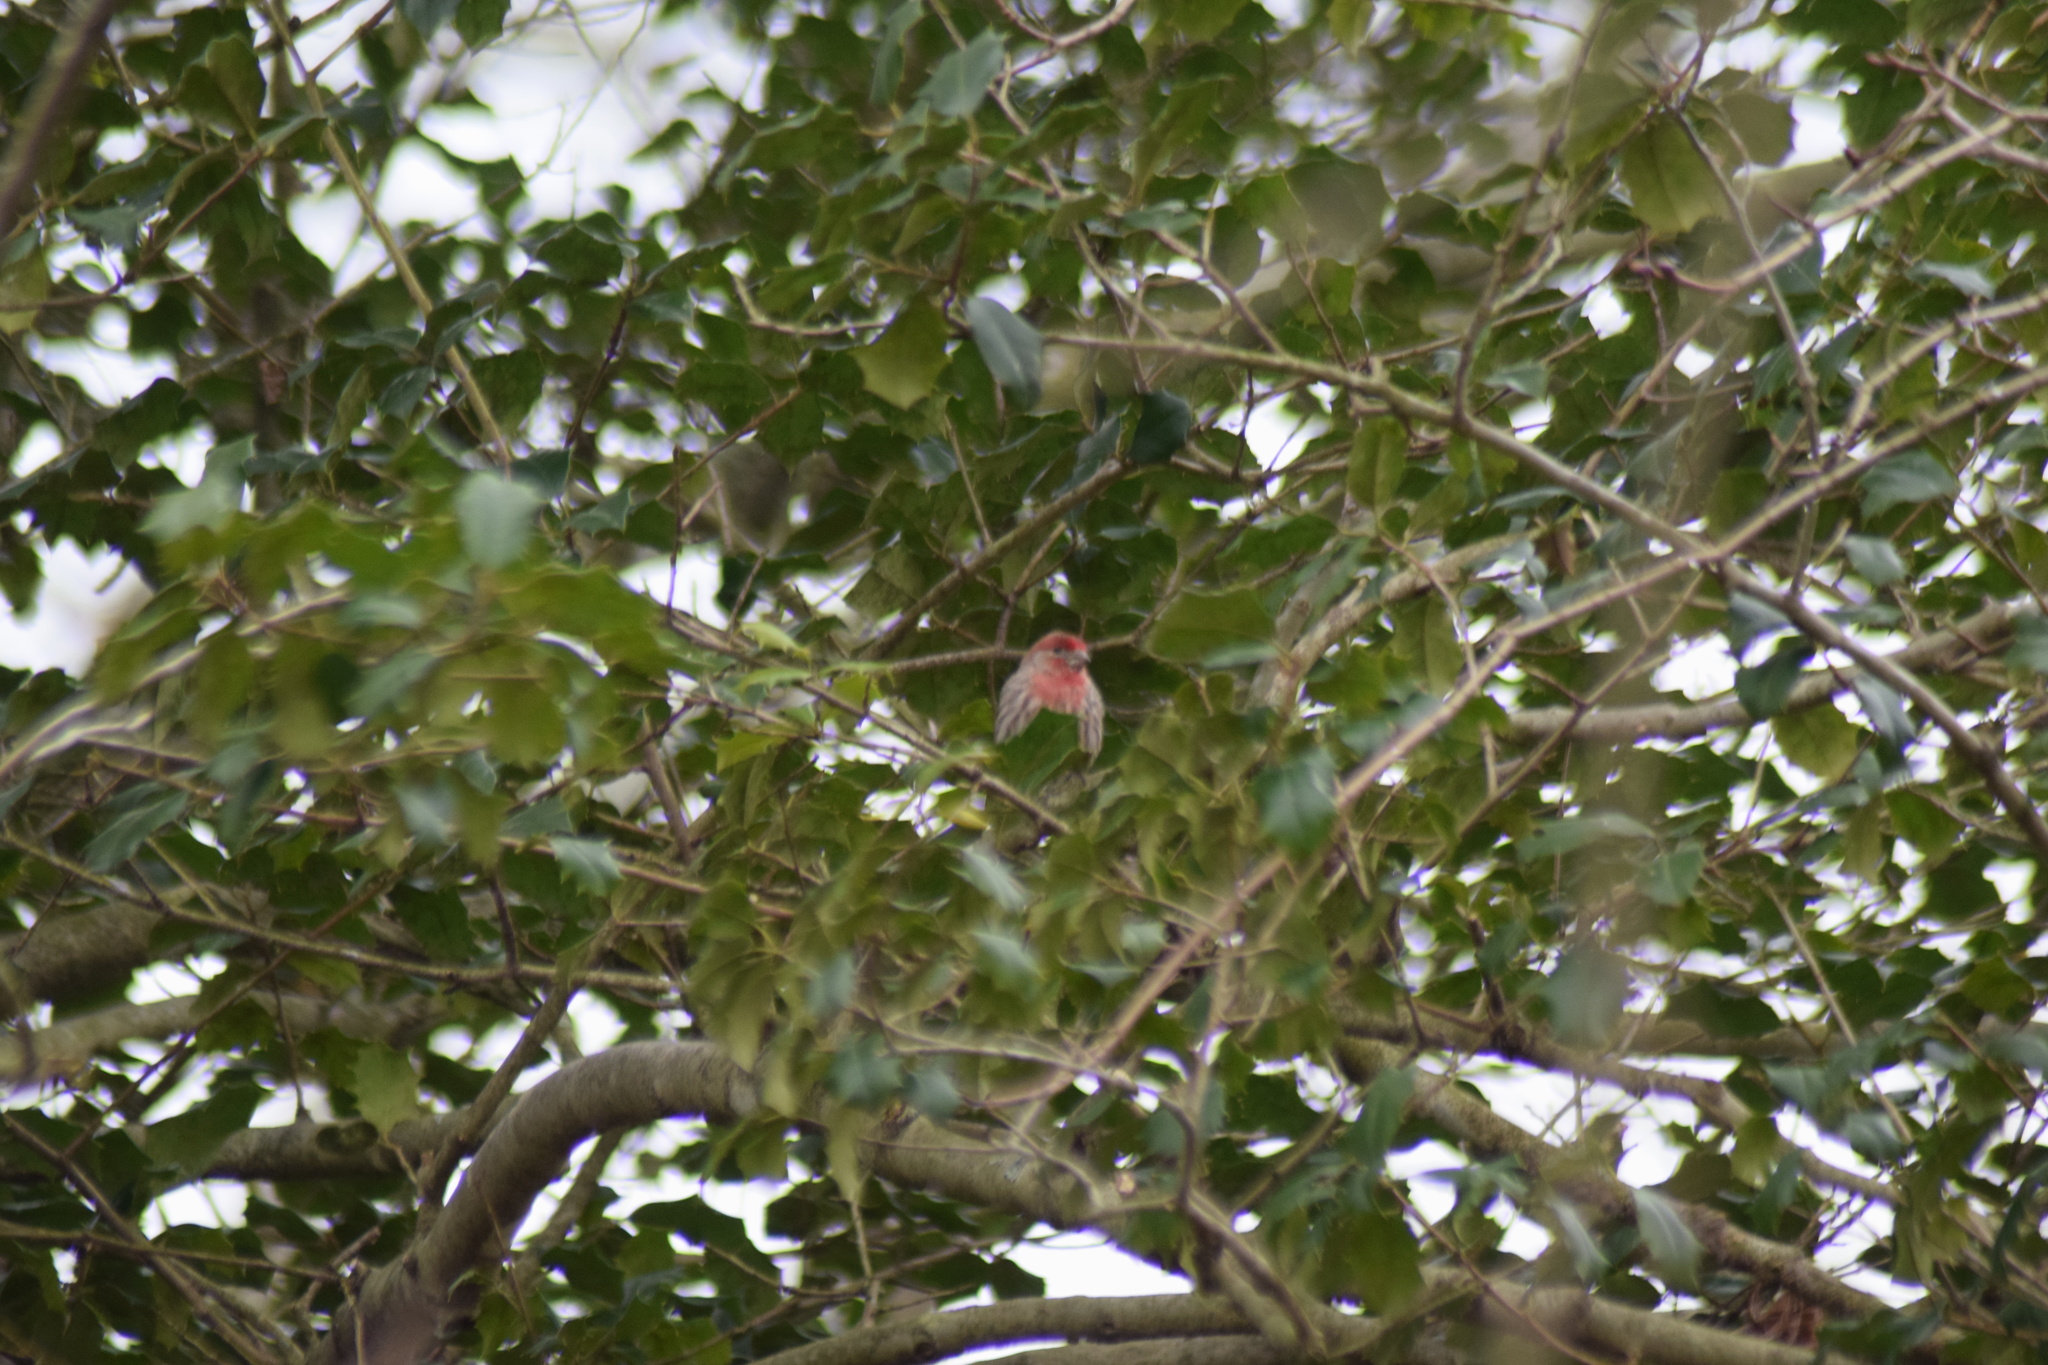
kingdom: Animalia
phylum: Chordata
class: Aves
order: Passeriformes
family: Fringillidae
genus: Haemorhous
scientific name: Haemorhous mexicanus
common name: House finch
